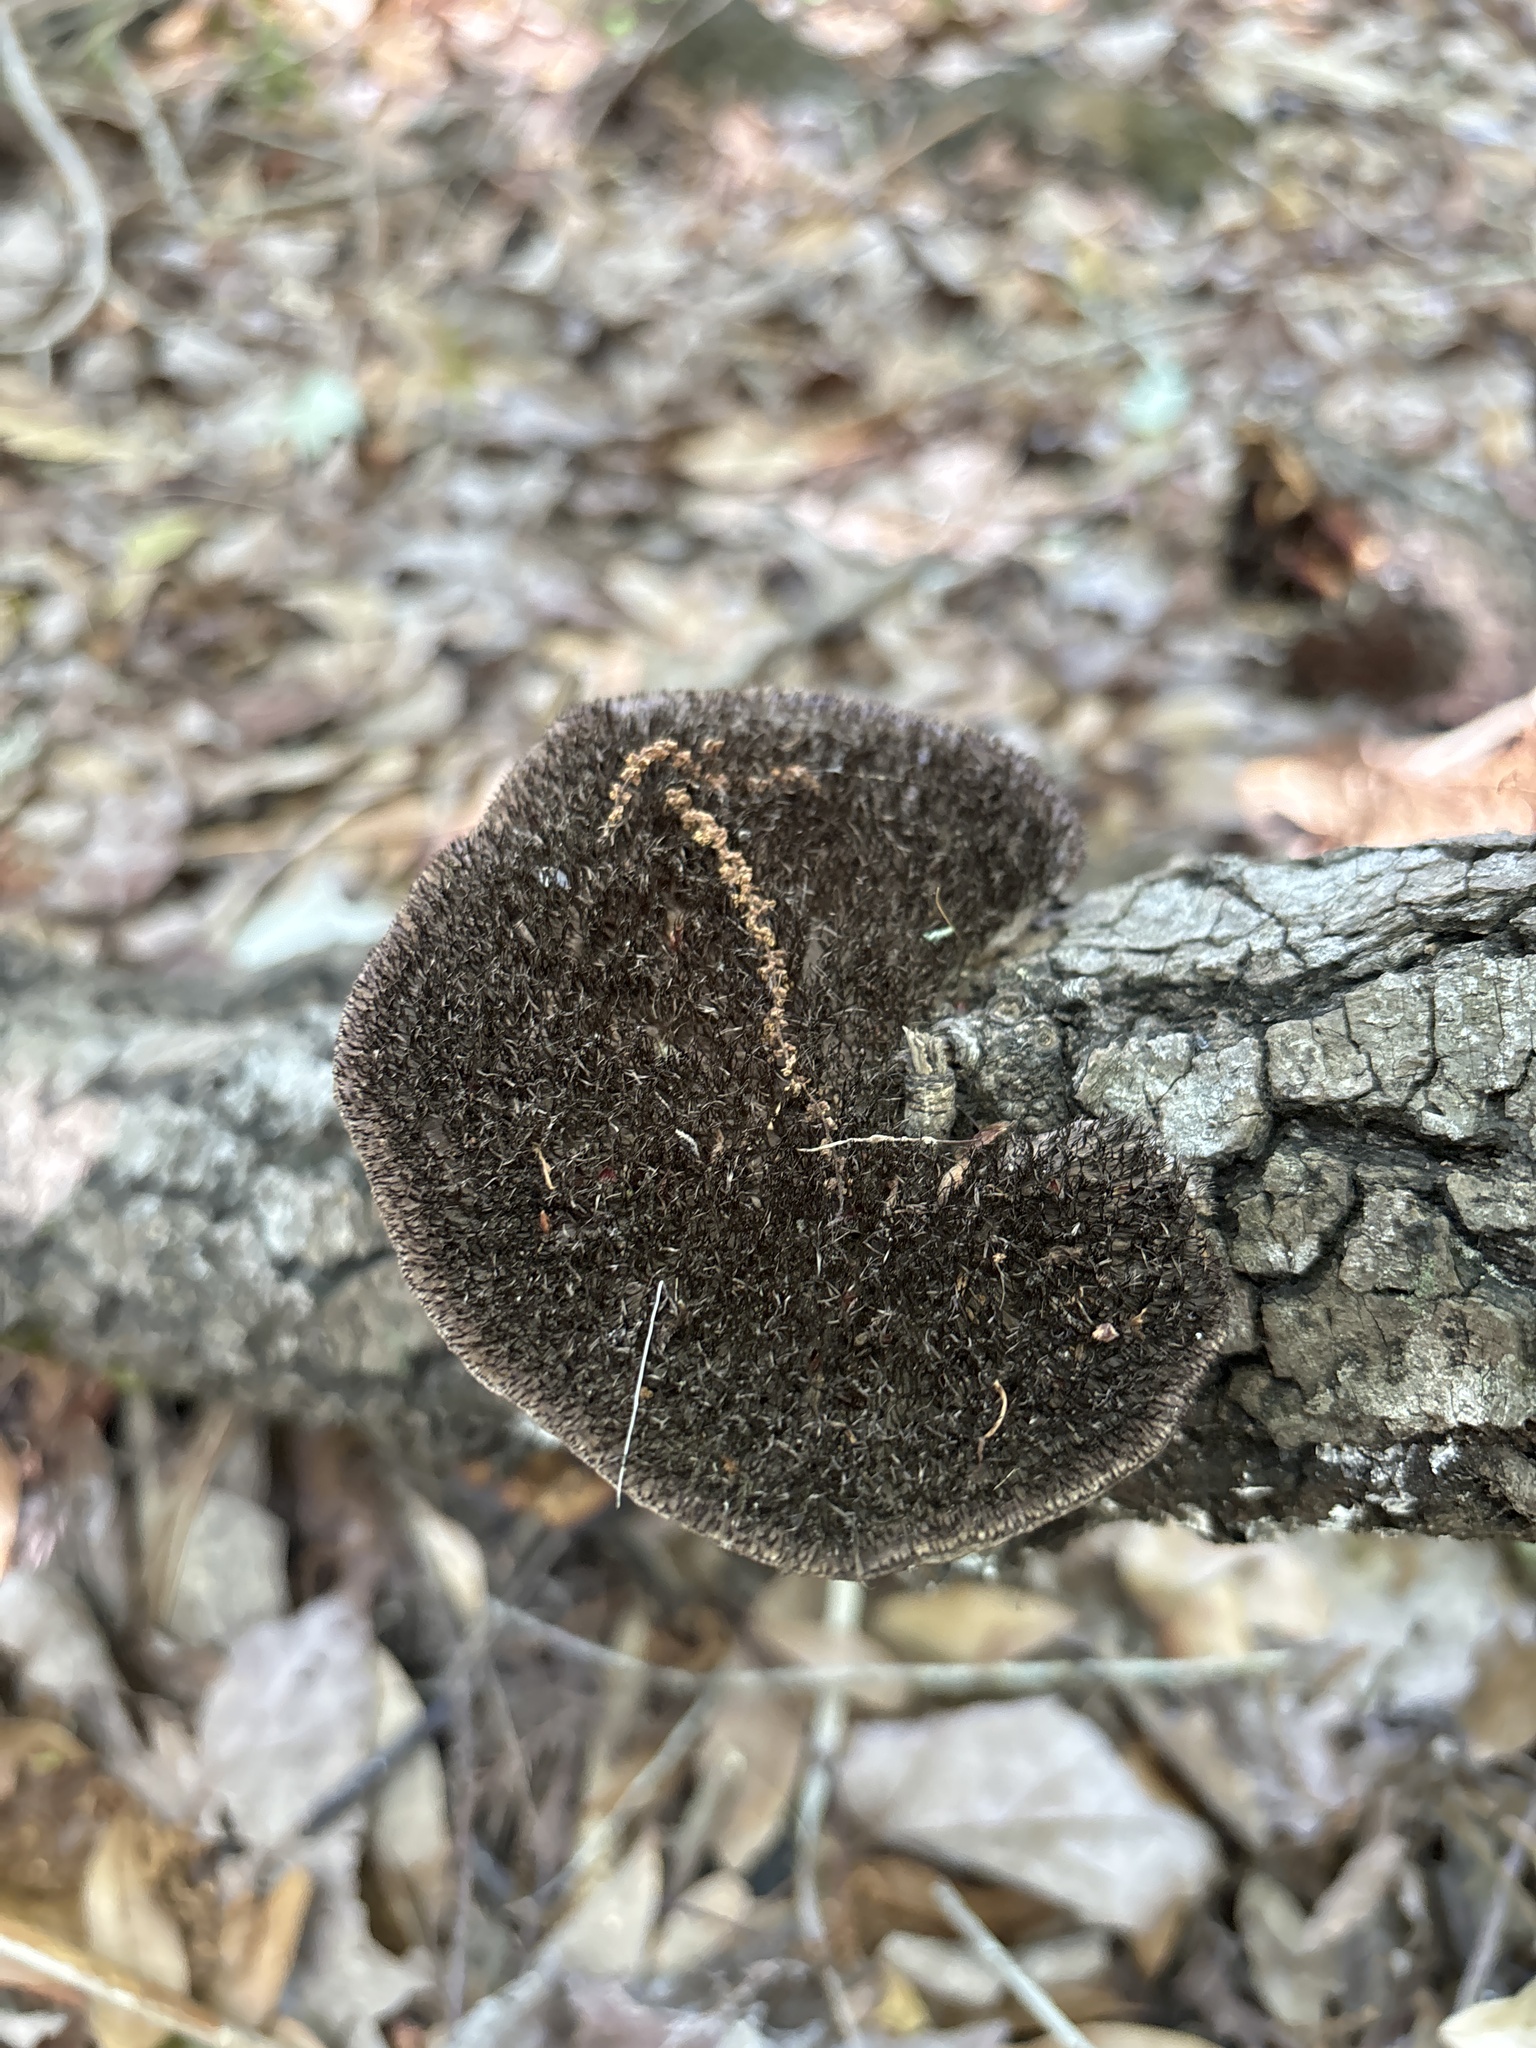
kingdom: Fungi
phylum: Basidiomycota
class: Agaricomycetes
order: Polyporales
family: Cerrenaceae
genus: Cerrena
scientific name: Cerrena hydnoides
